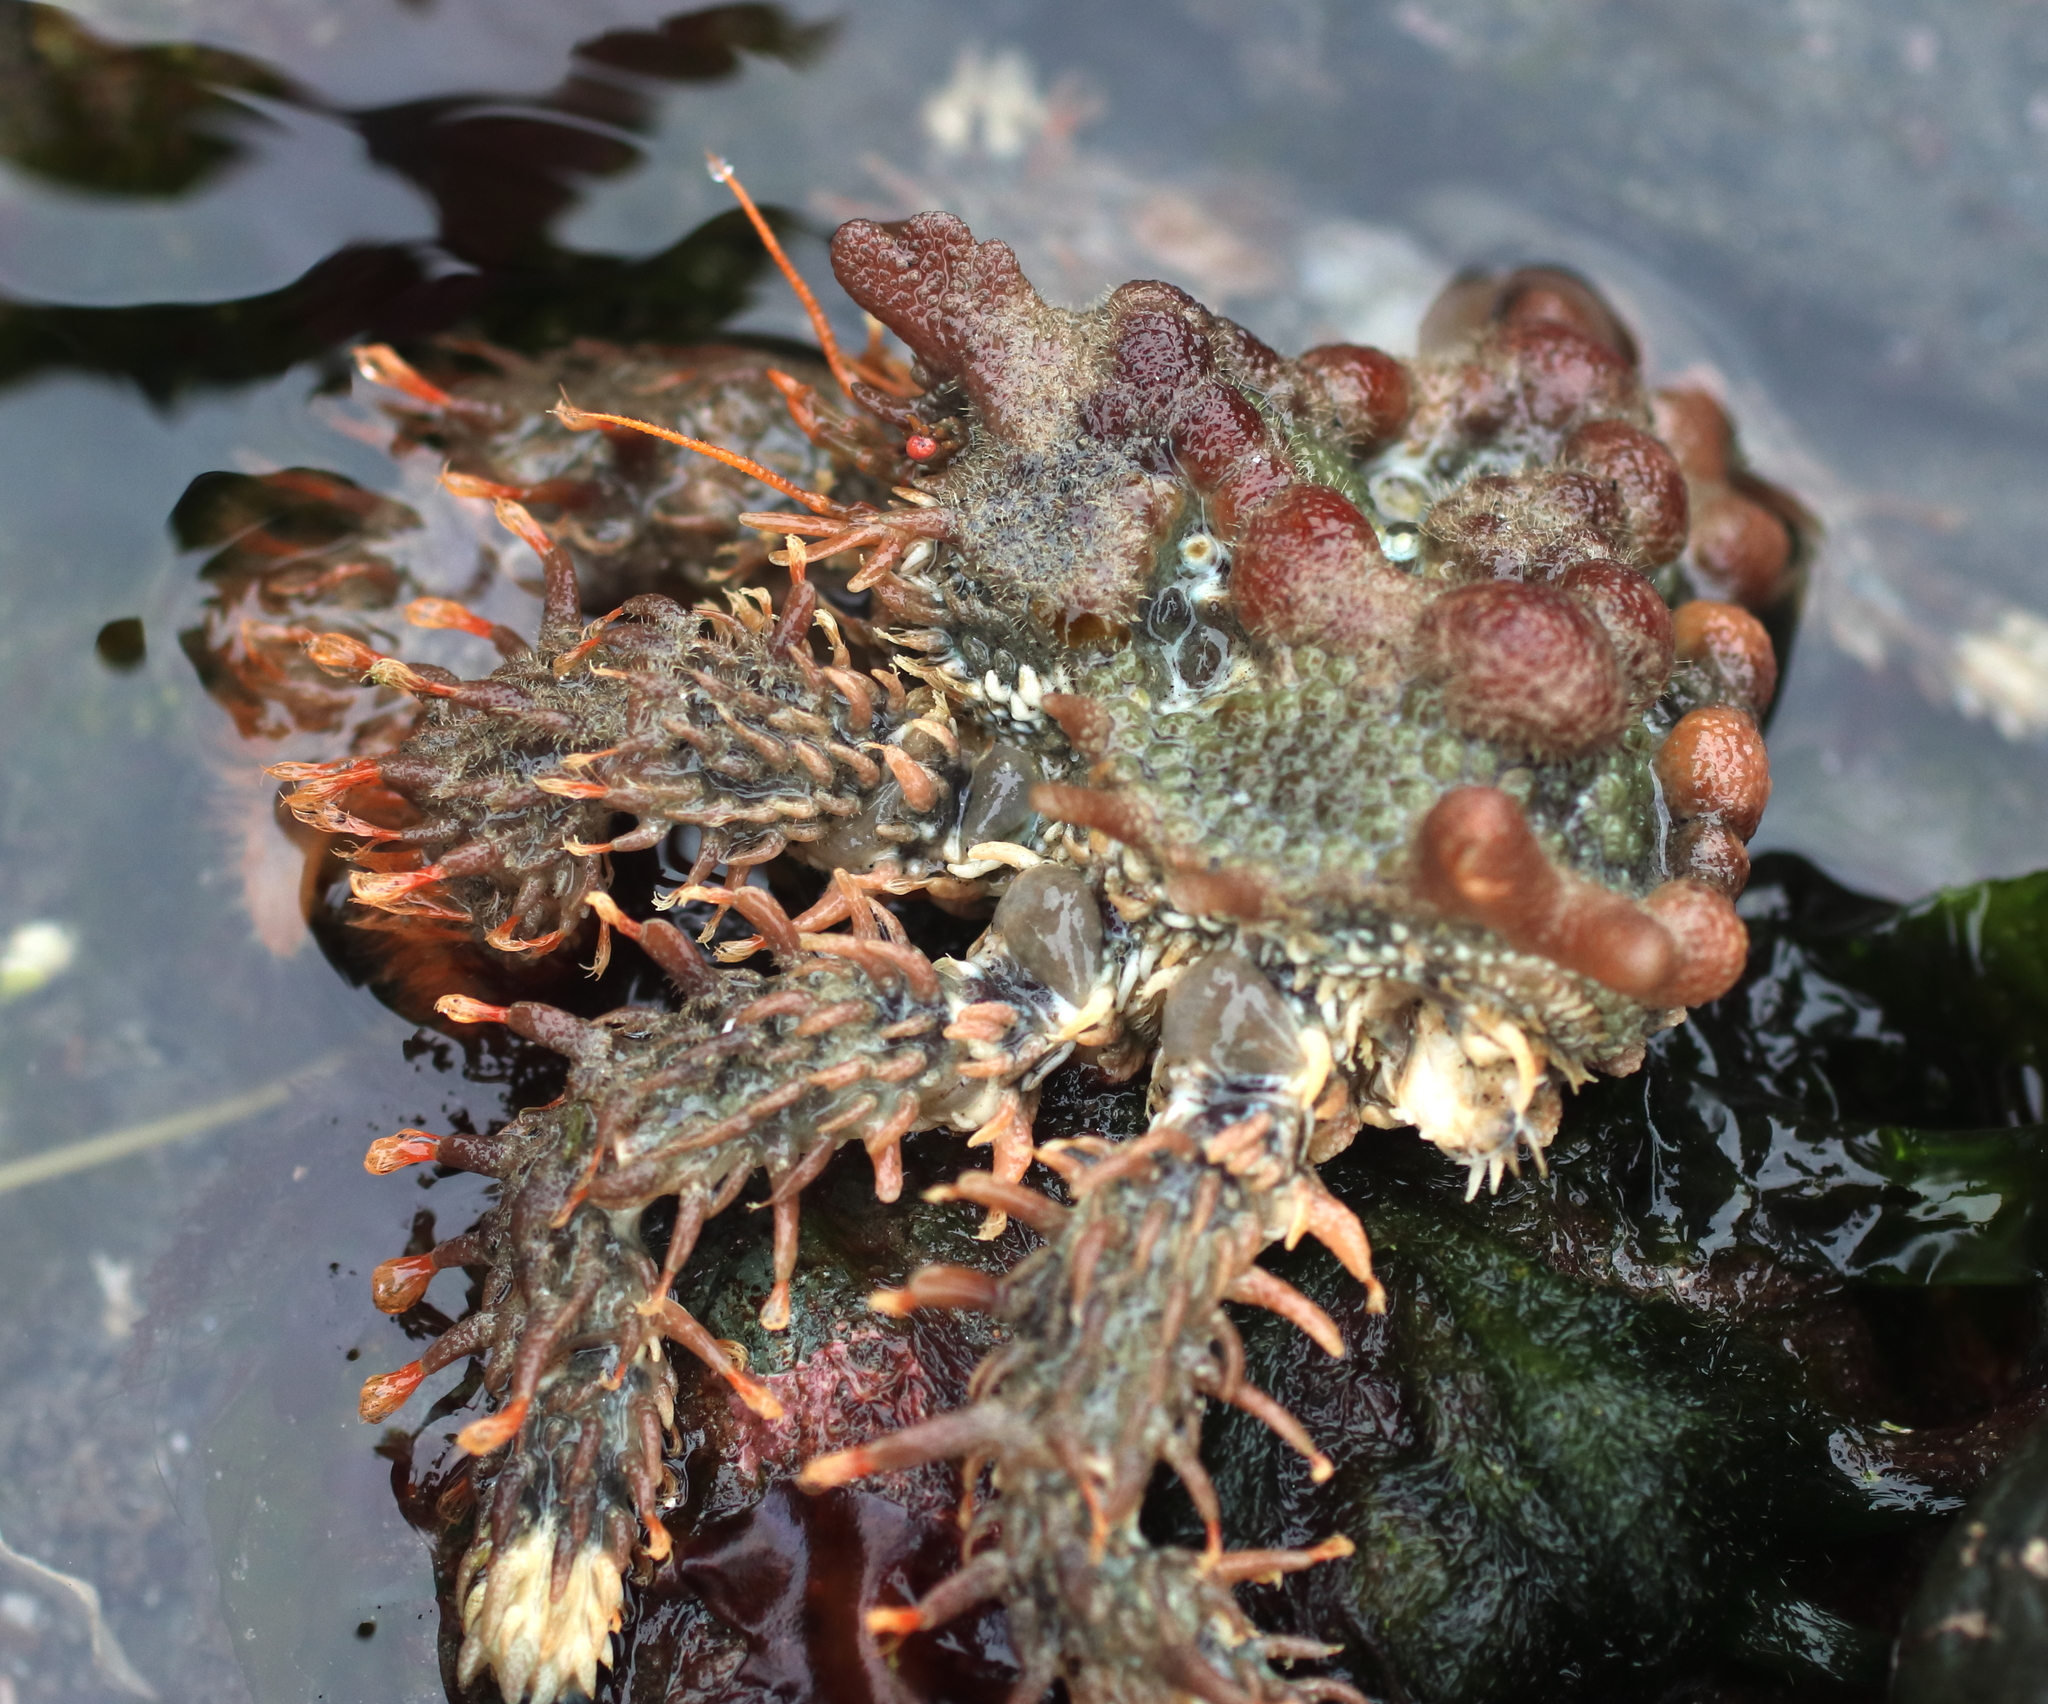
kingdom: Animalia
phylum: Arthropoda
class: Malacostraca
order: Decapoda
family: Lithodidae
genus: Phyllolithodes
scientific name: Phyllolithodes papillosus
